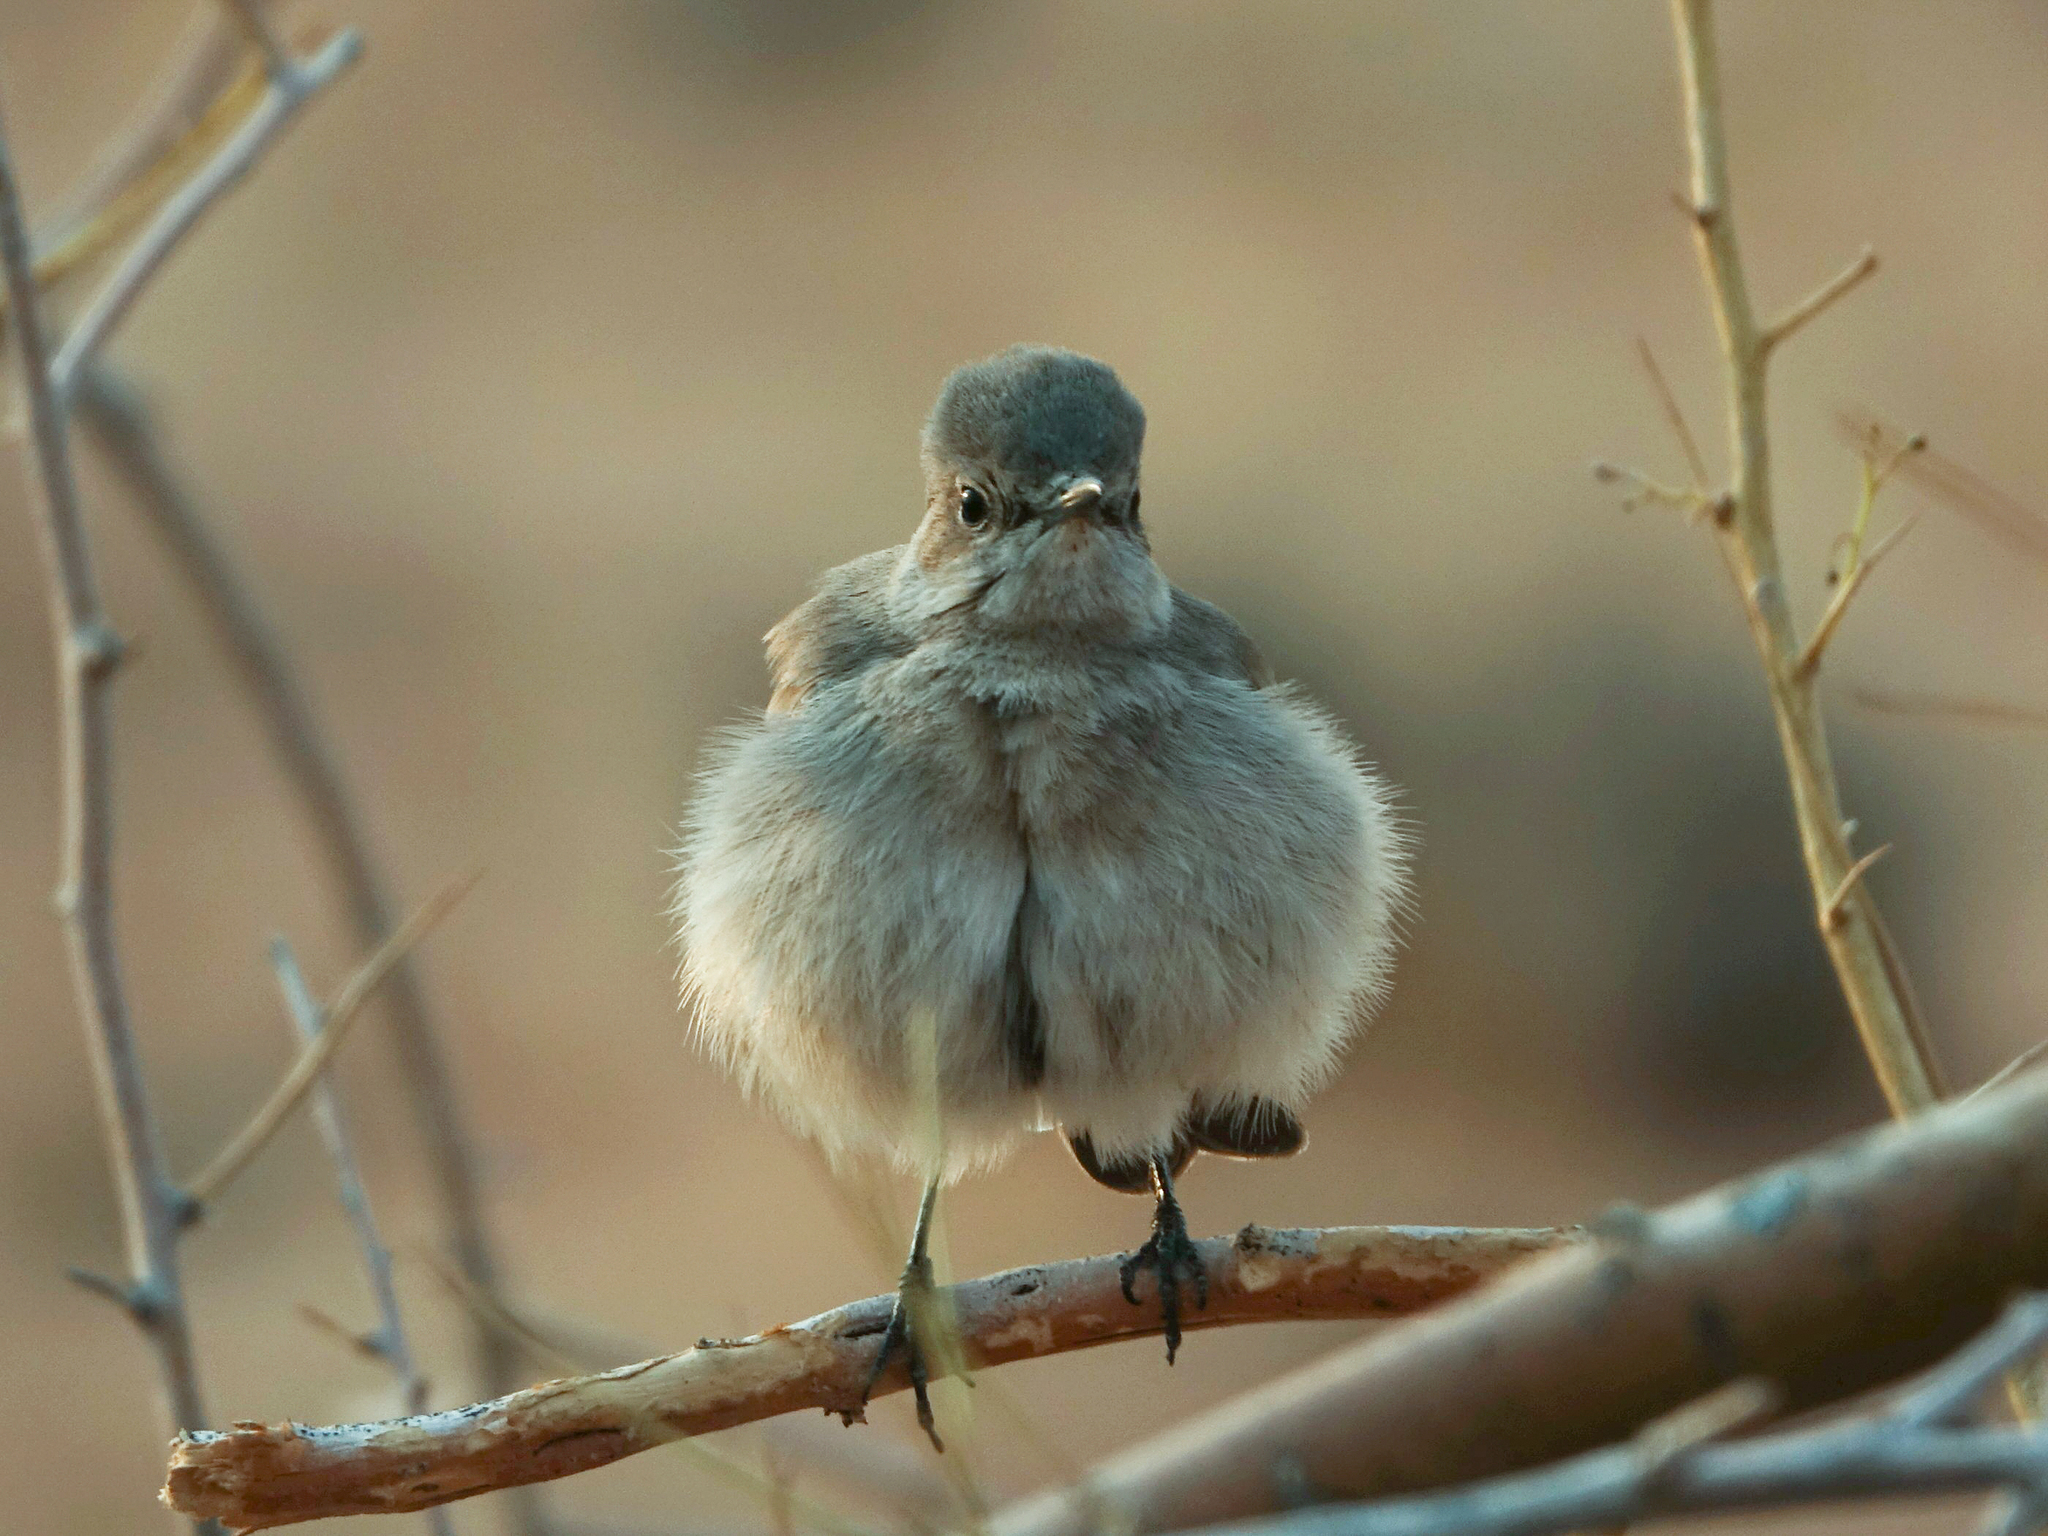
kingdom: Animalia
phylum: Chordata
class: Aves
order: Passeriformes
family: Muscicapidae
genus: Oenanthe
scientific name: Oenanthe familiaris
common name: Familiar chat
